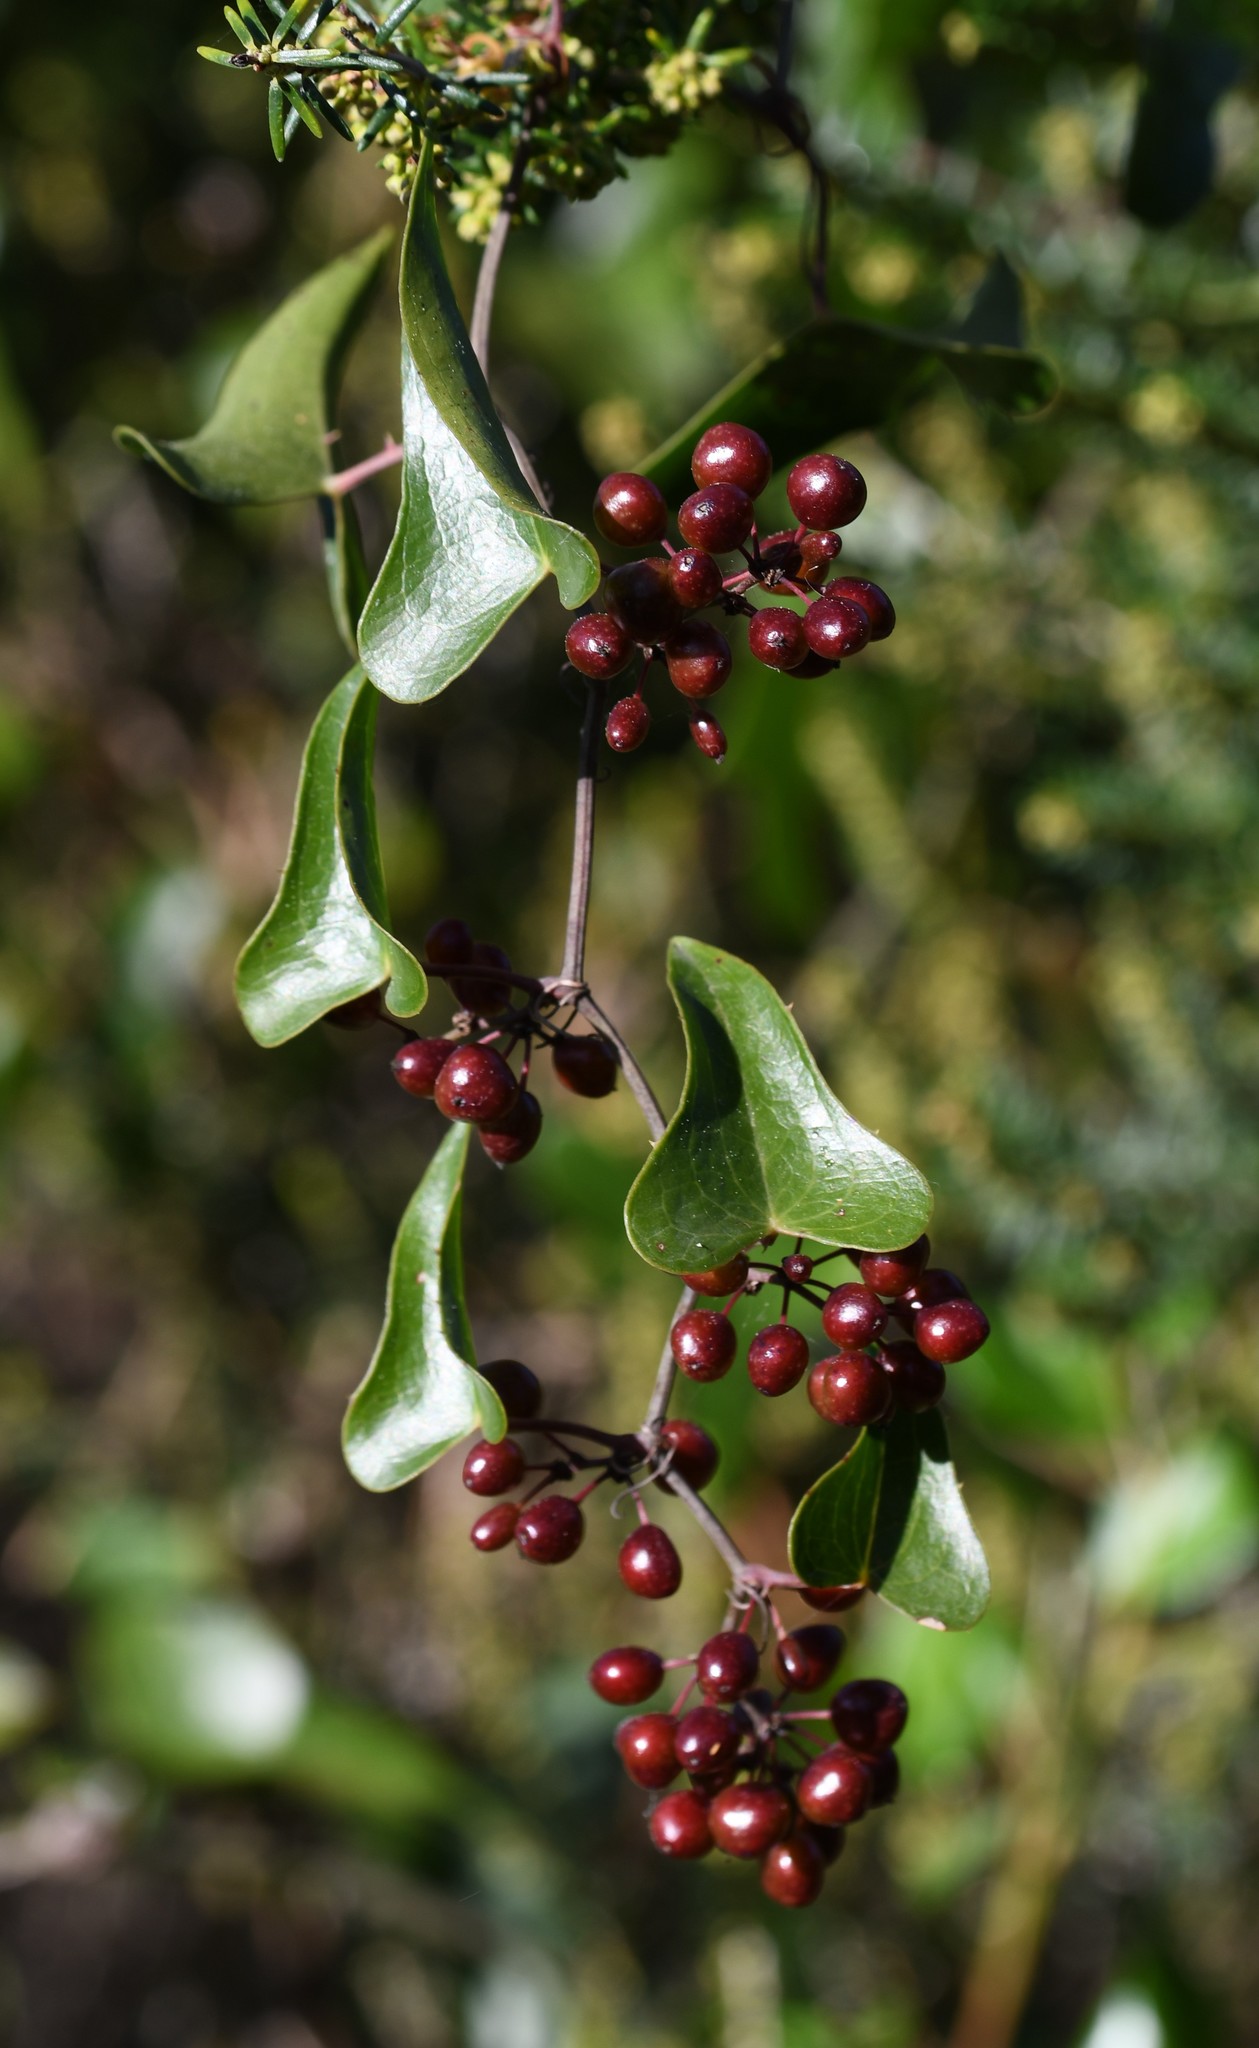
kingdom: Plantae
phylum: Tracheophyta
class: Liliopsida
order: Liliales
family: Smilacaceae
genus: Smilax
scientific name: Smilax aspera
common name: Common smilax
